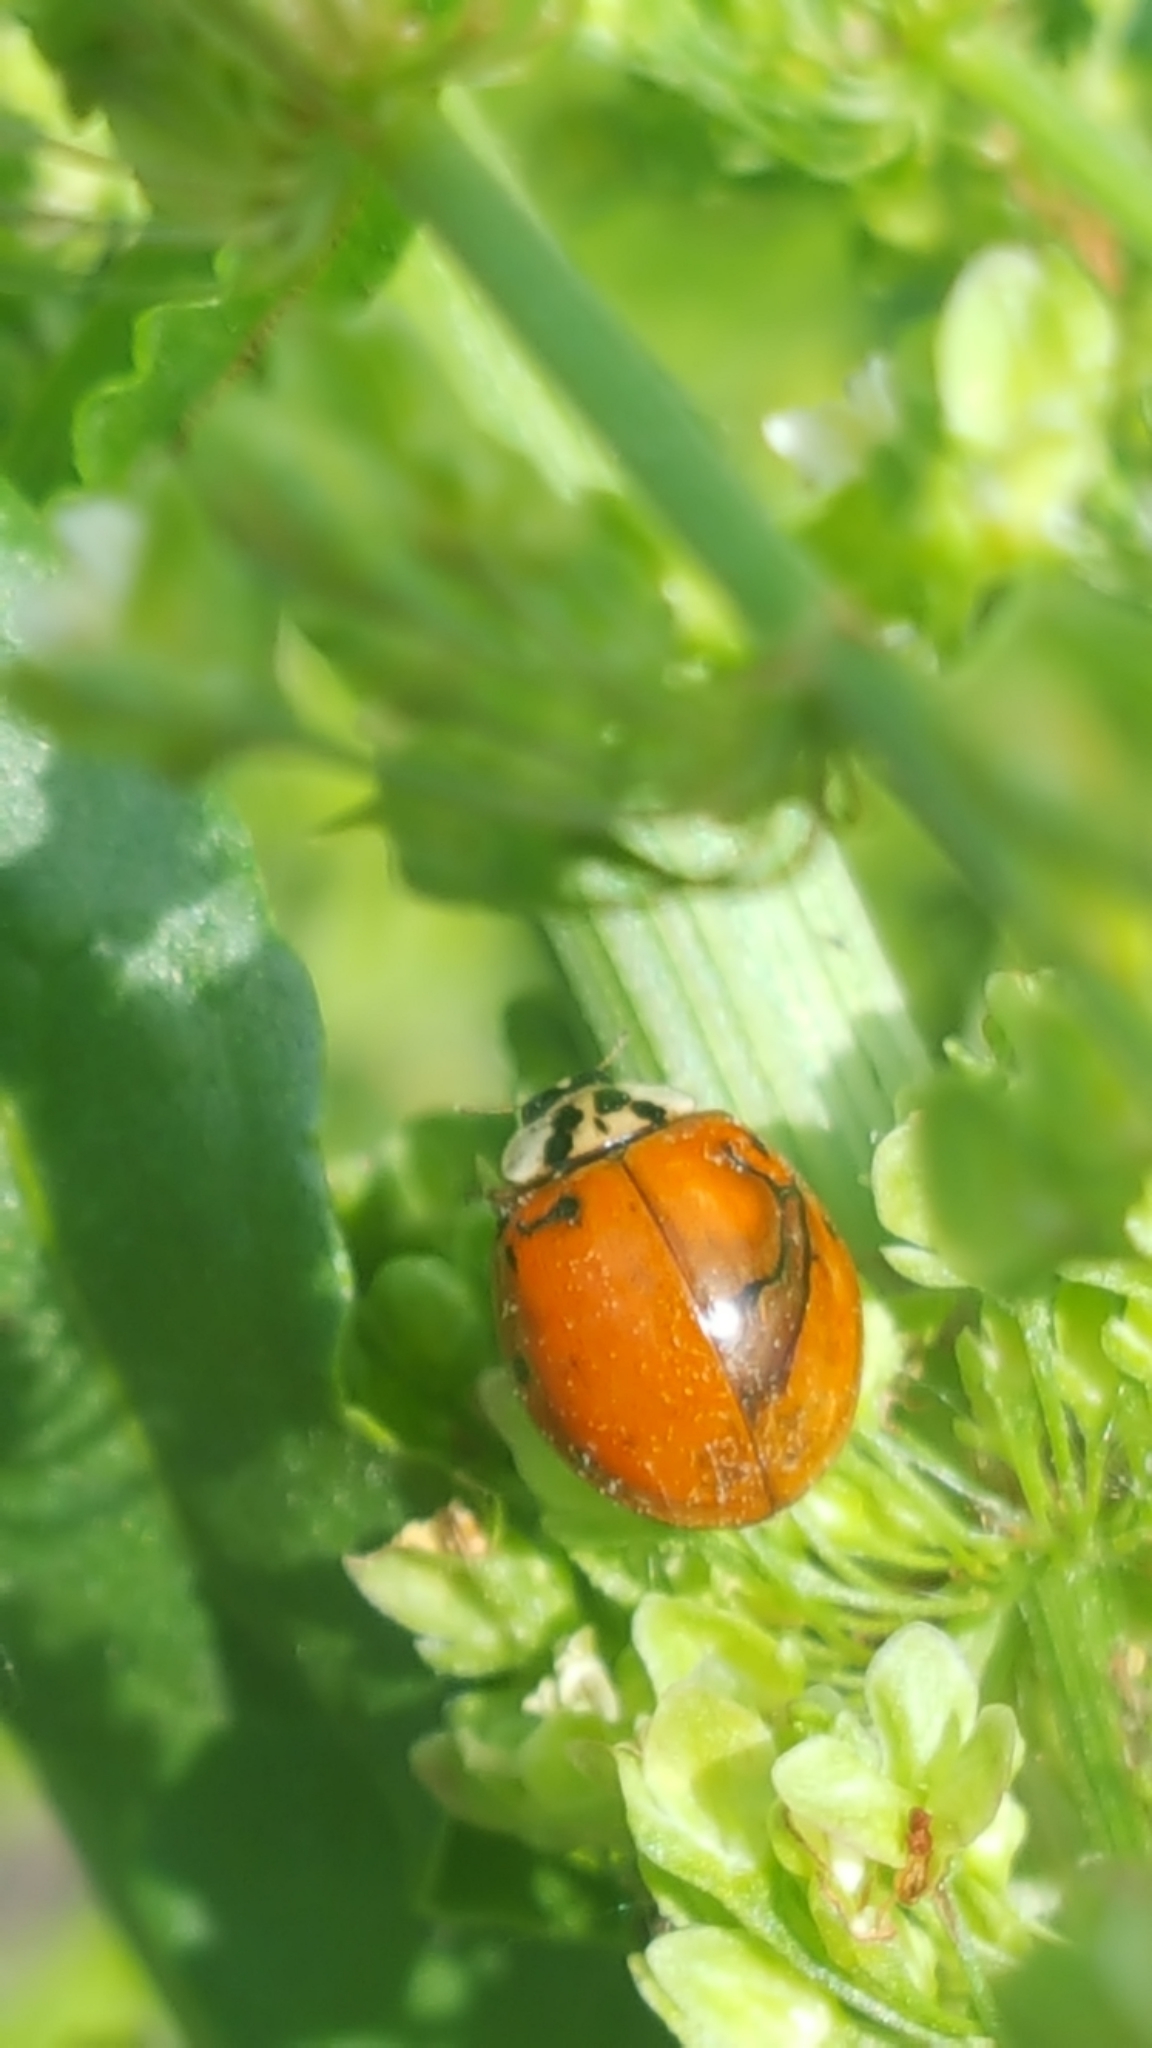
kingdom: Animalia
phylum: Arthropoda
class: Insecta
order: Coleoptera
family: Coccinellidae
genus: Harmonia
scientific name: Harmonia axyridis
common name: Harlequin ladybird
